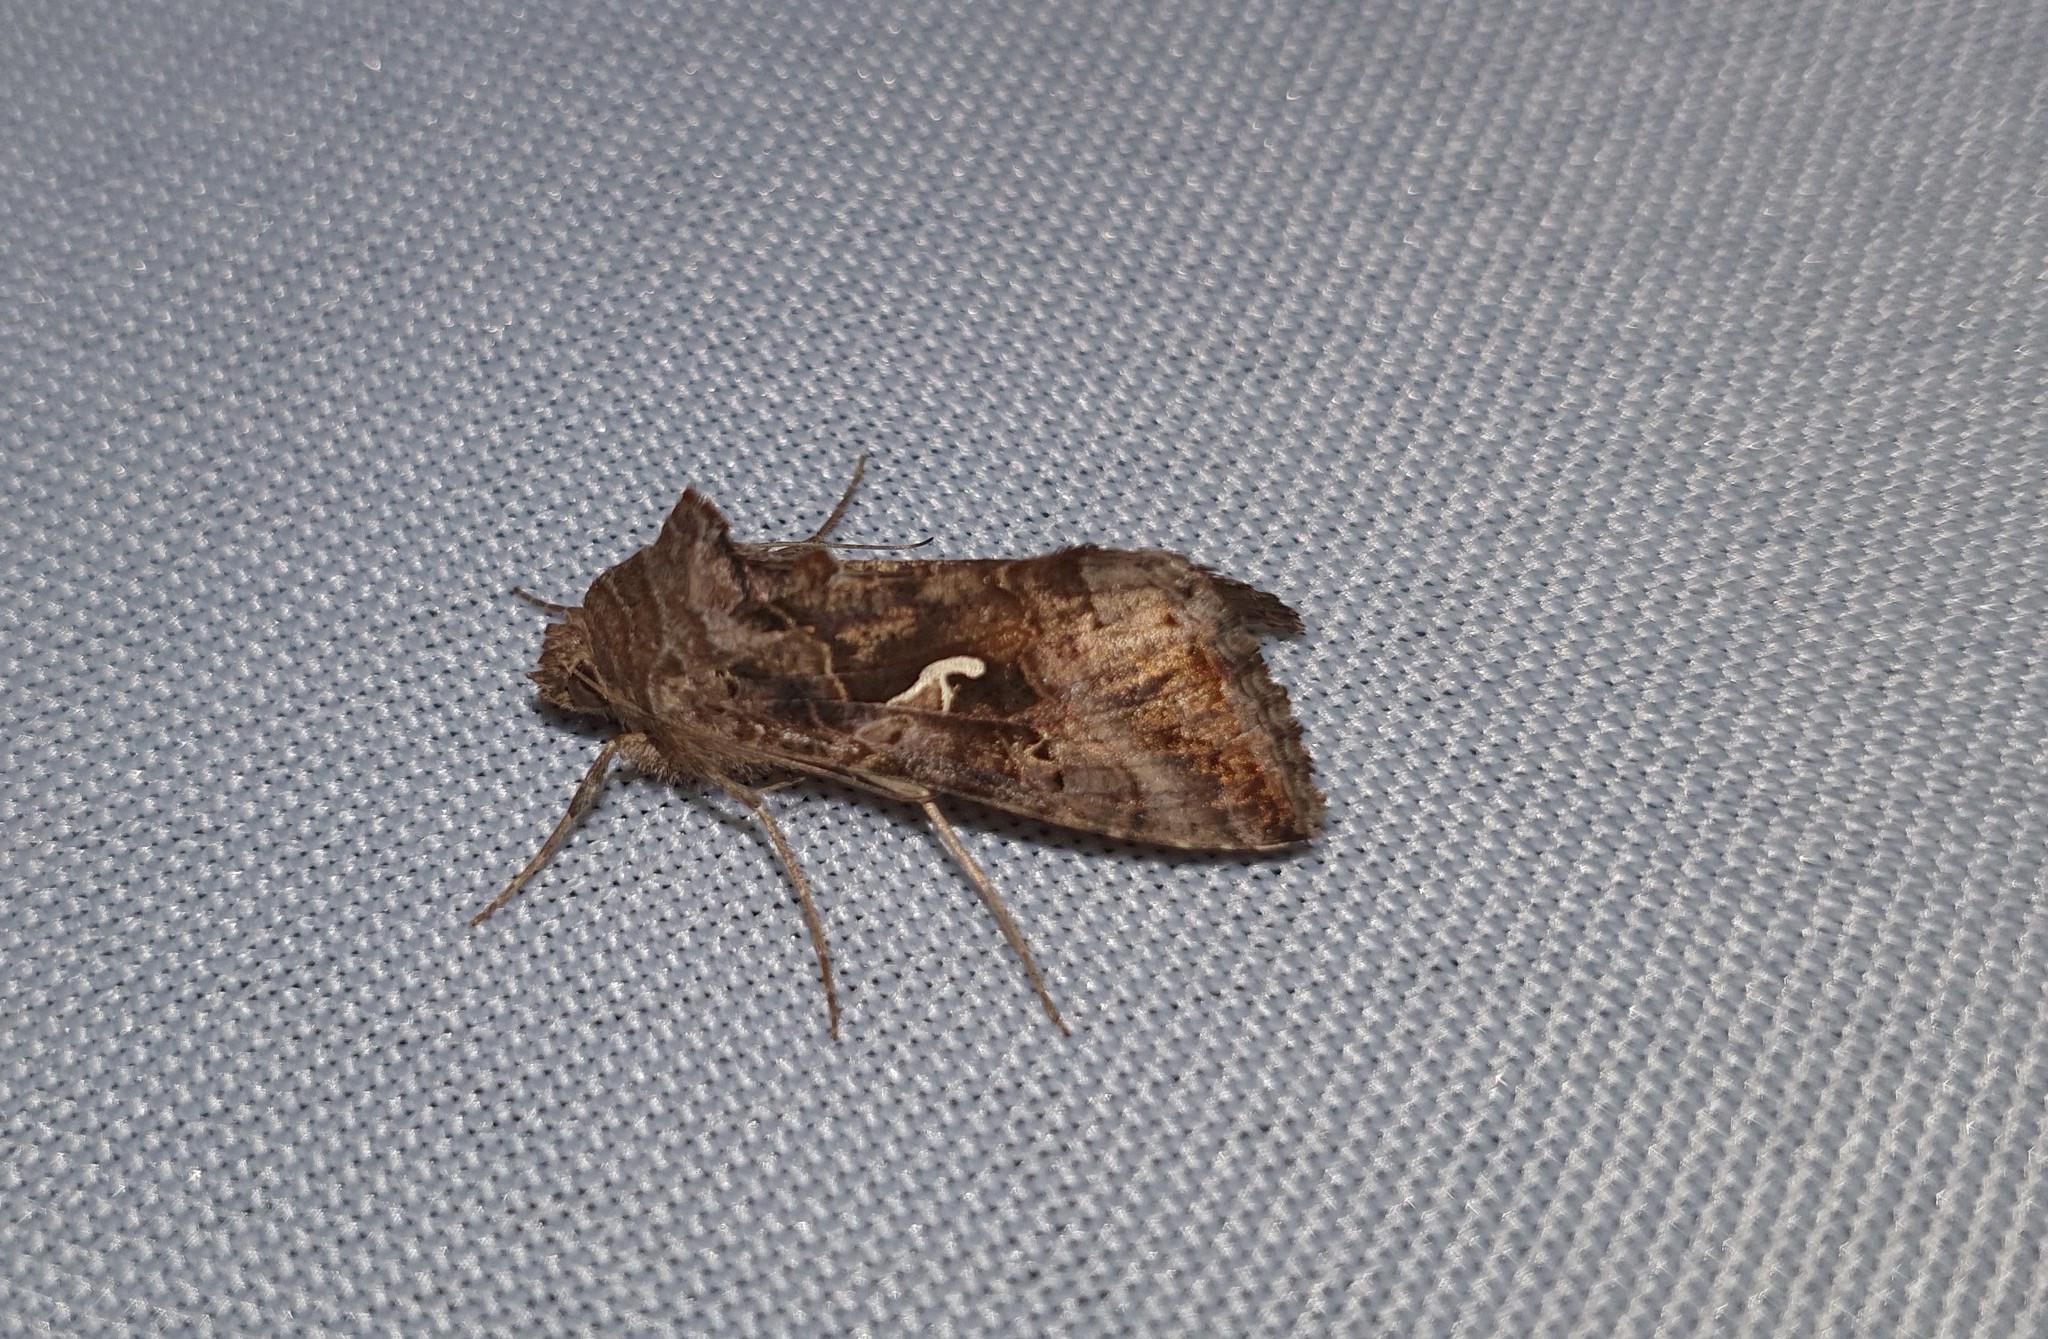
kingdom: Animalia
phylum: Arthropoda
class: Insecta
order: Lepidoptera
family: Noctuidae
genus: Autographa
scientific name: Autographa gamma
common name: Silver y
